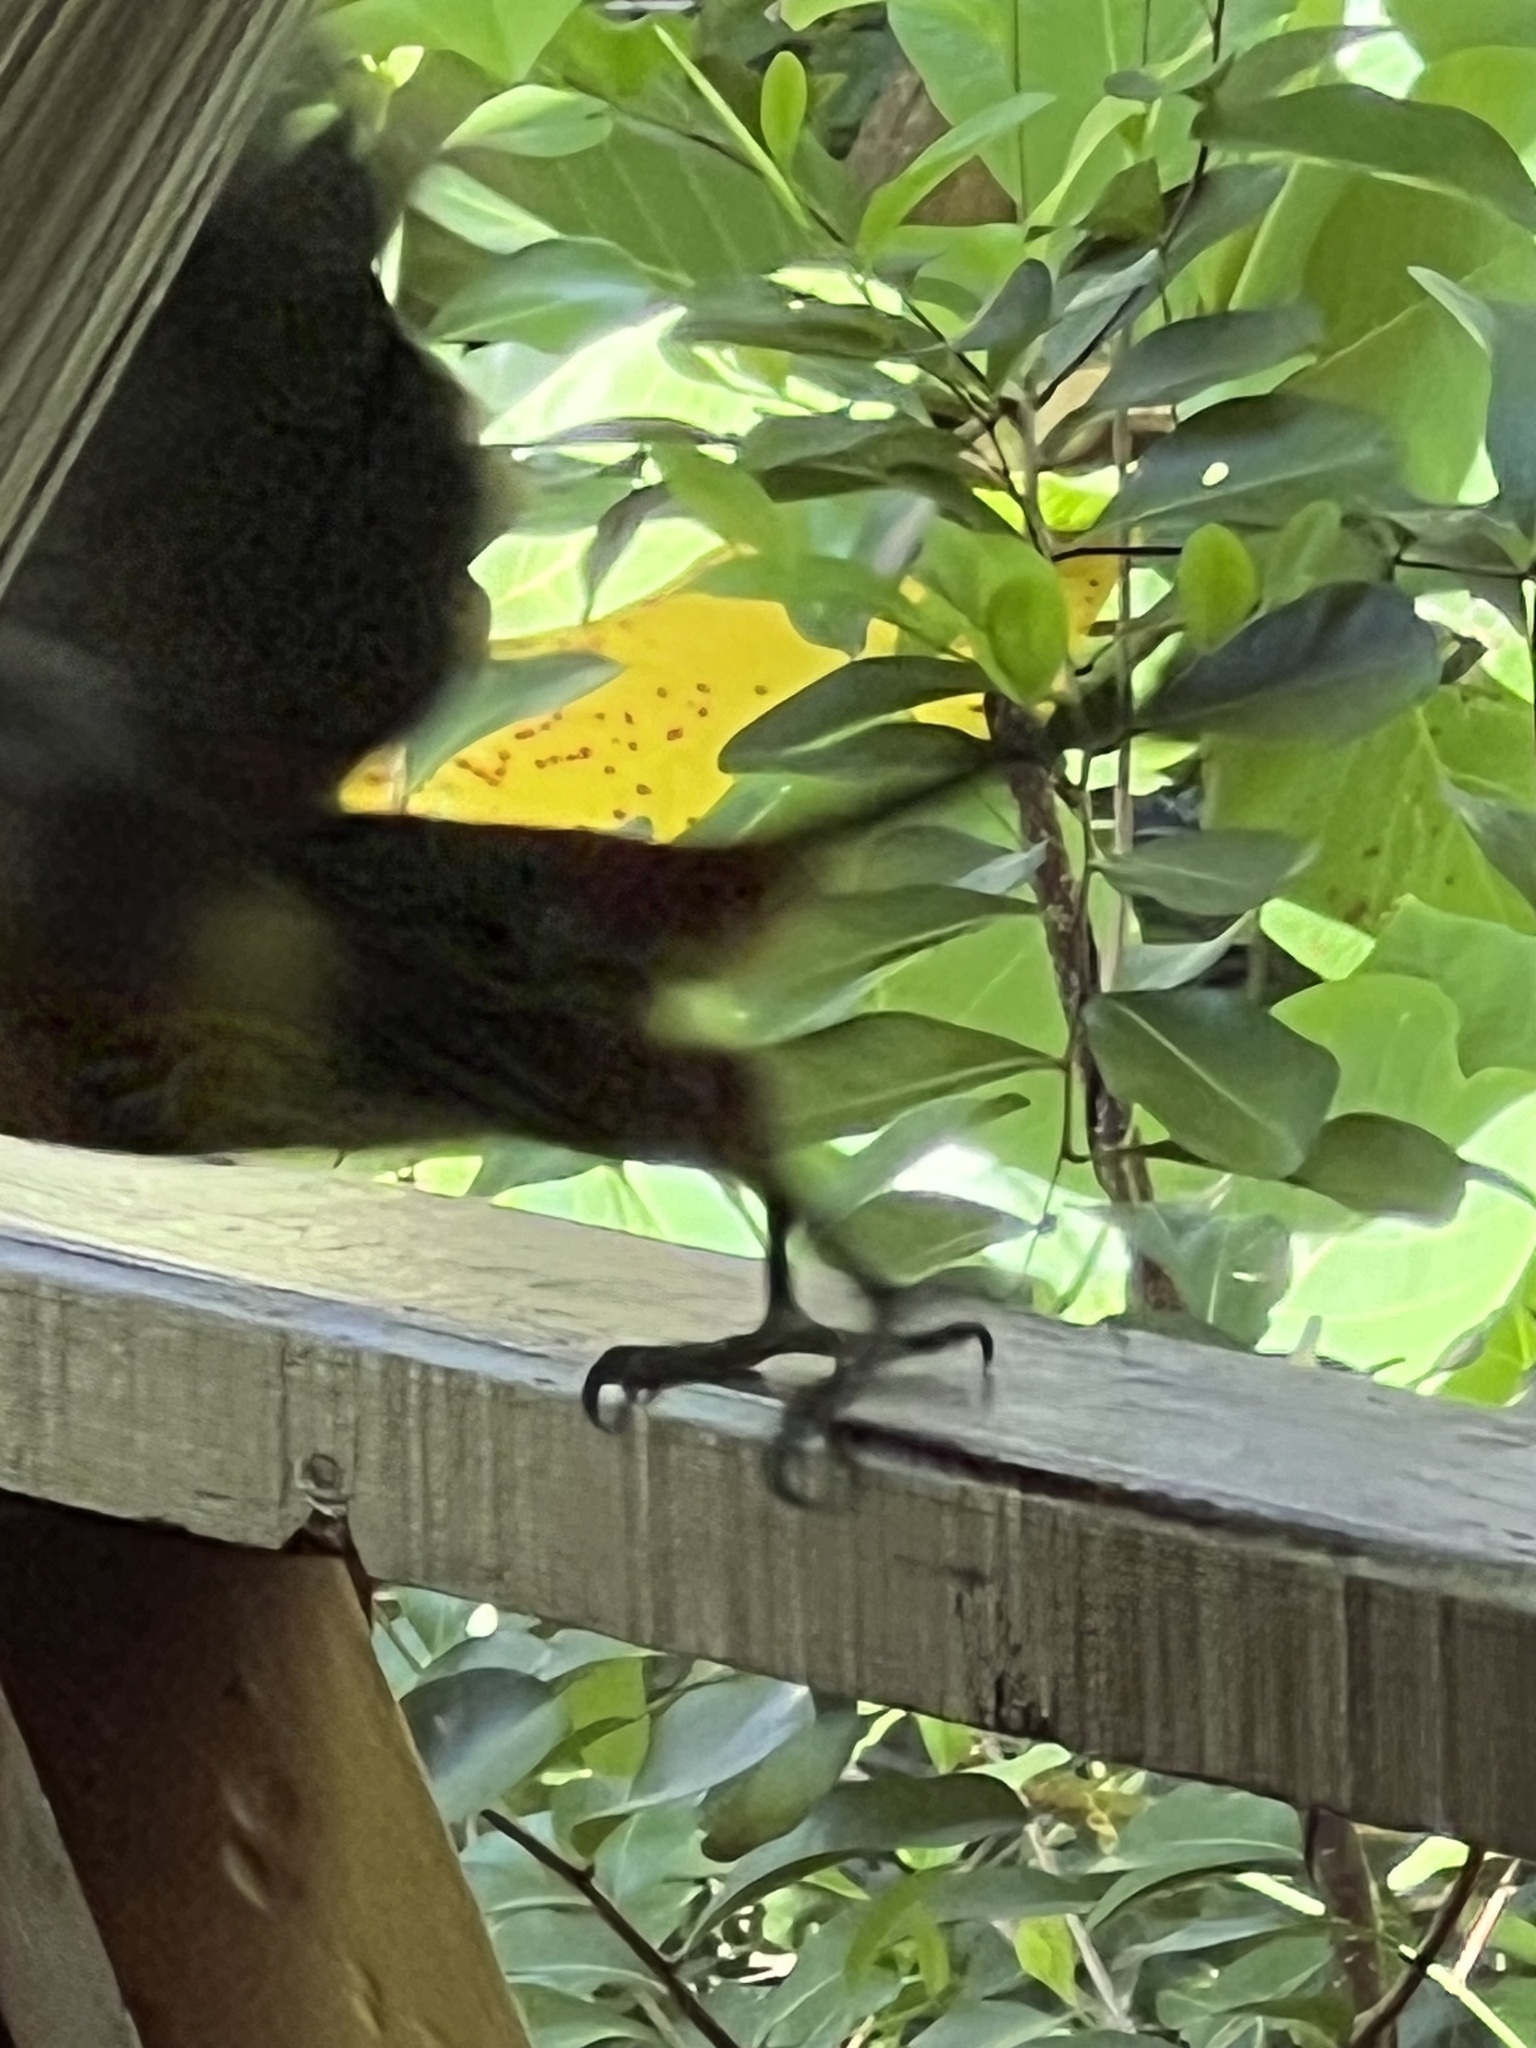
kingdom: Animalia
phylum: Chordata
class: Aves
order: Piciformes
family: Ramphastidae
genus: Selenidera
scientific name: Selenidera spectabilis
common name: Yellow-eared toucanet
